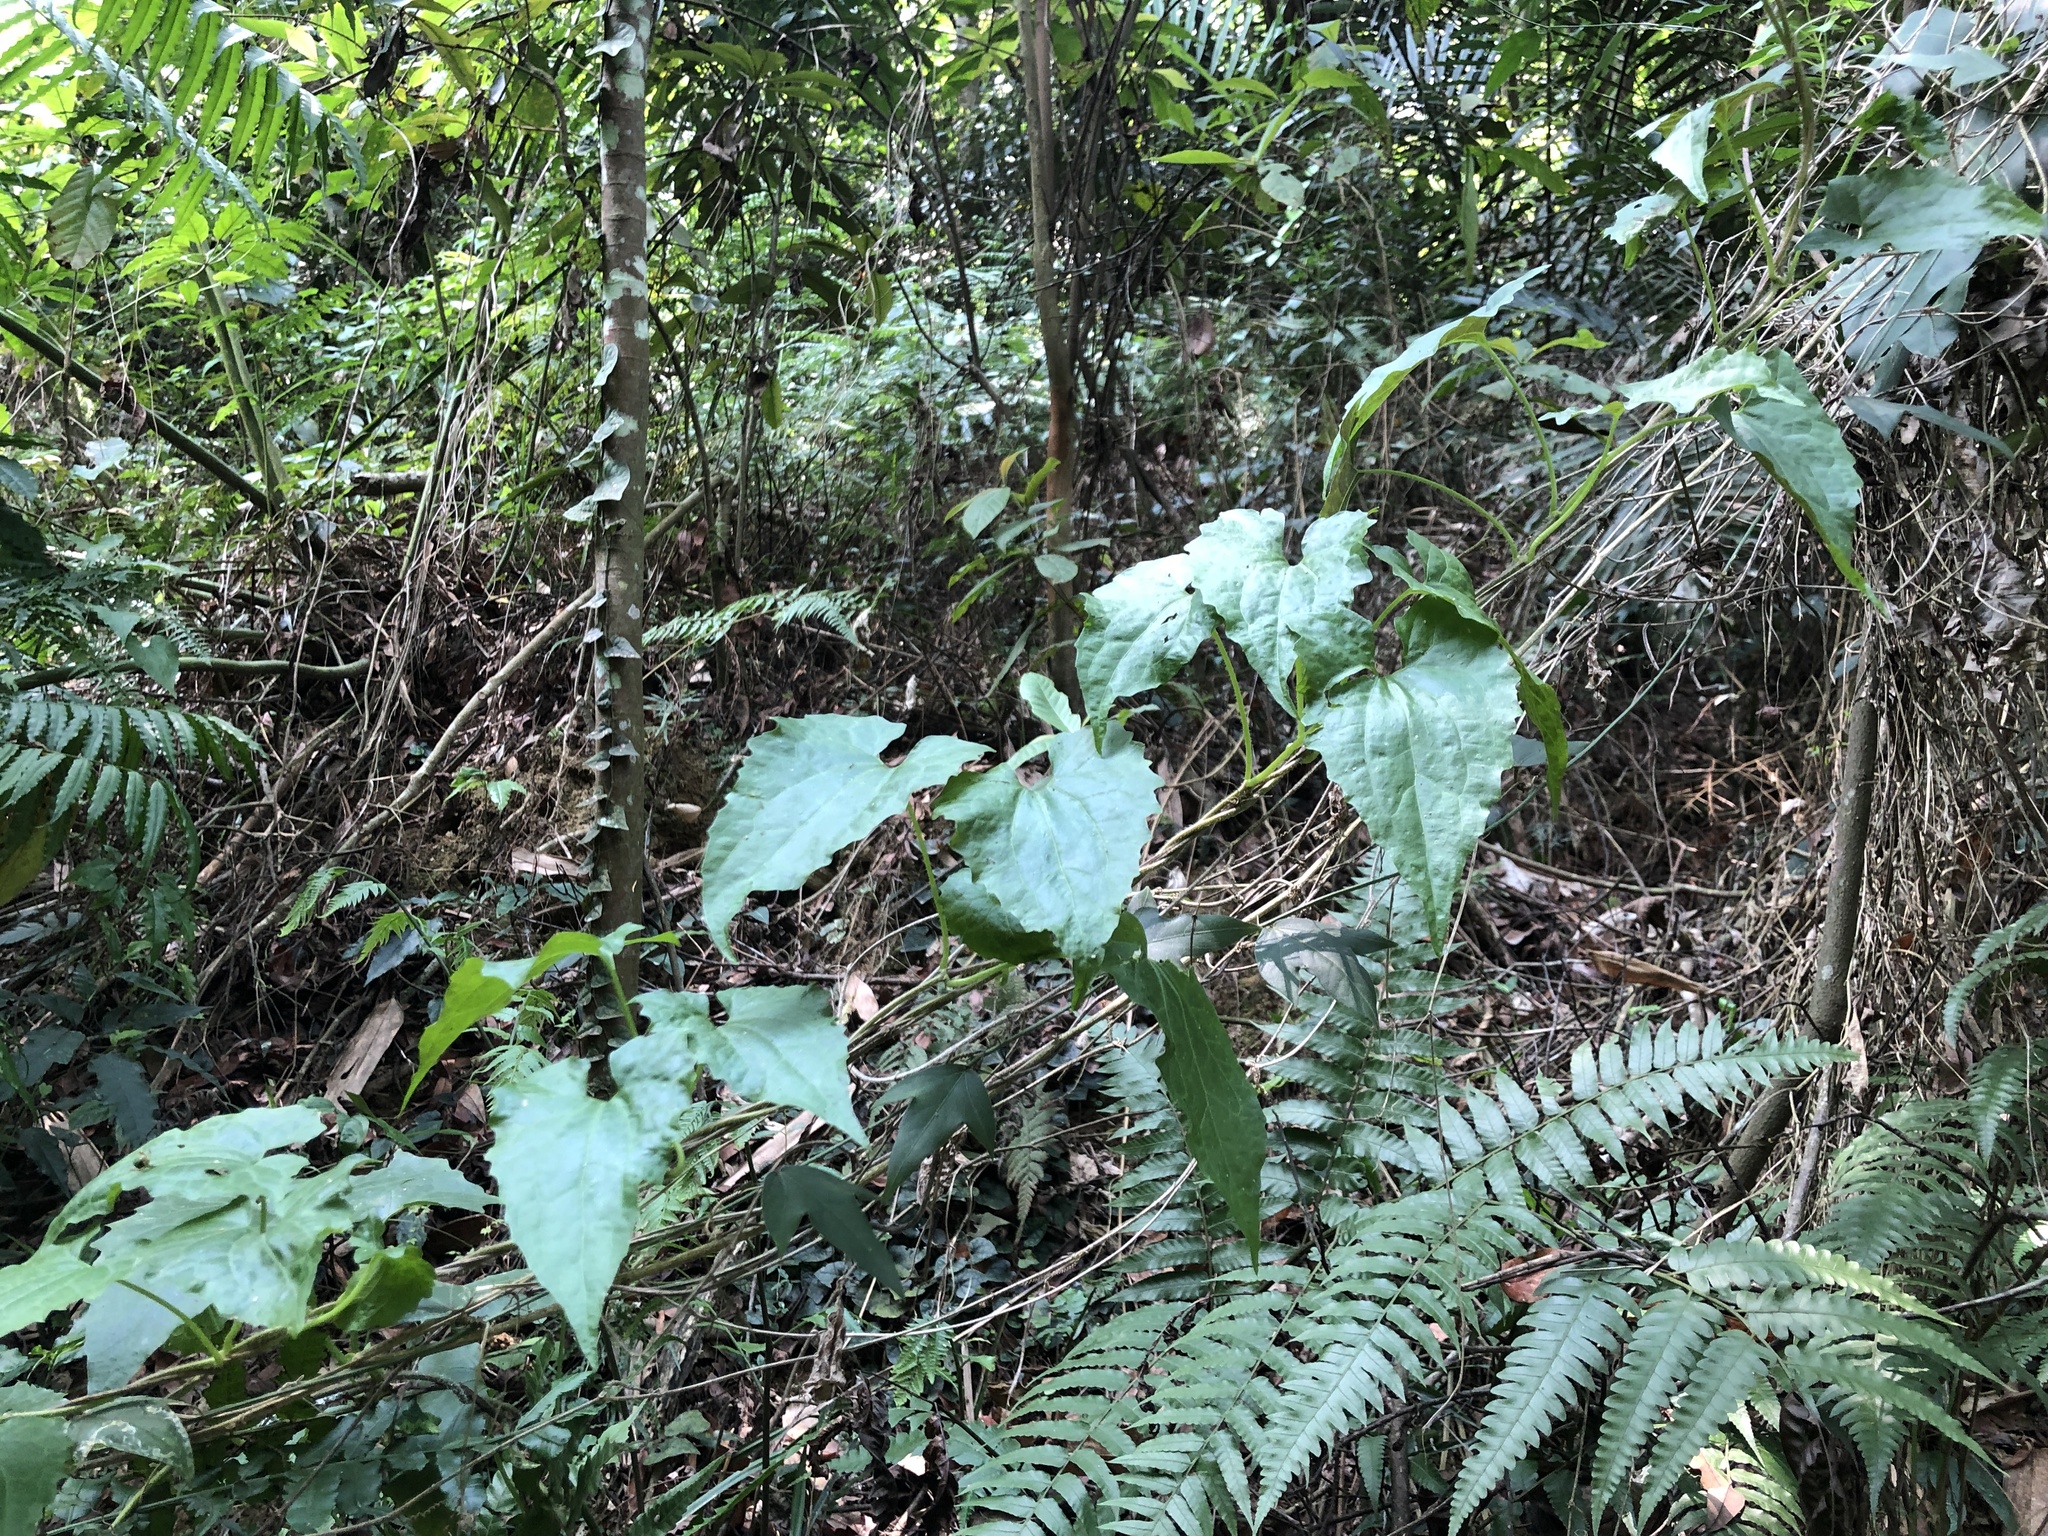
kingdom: Plantae
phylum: Tracheophyta
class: Magnoliopsida
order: Asterales
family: Asteraceae
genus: Mikania
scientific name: Mikania micrantha
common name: Mile-a-minute
